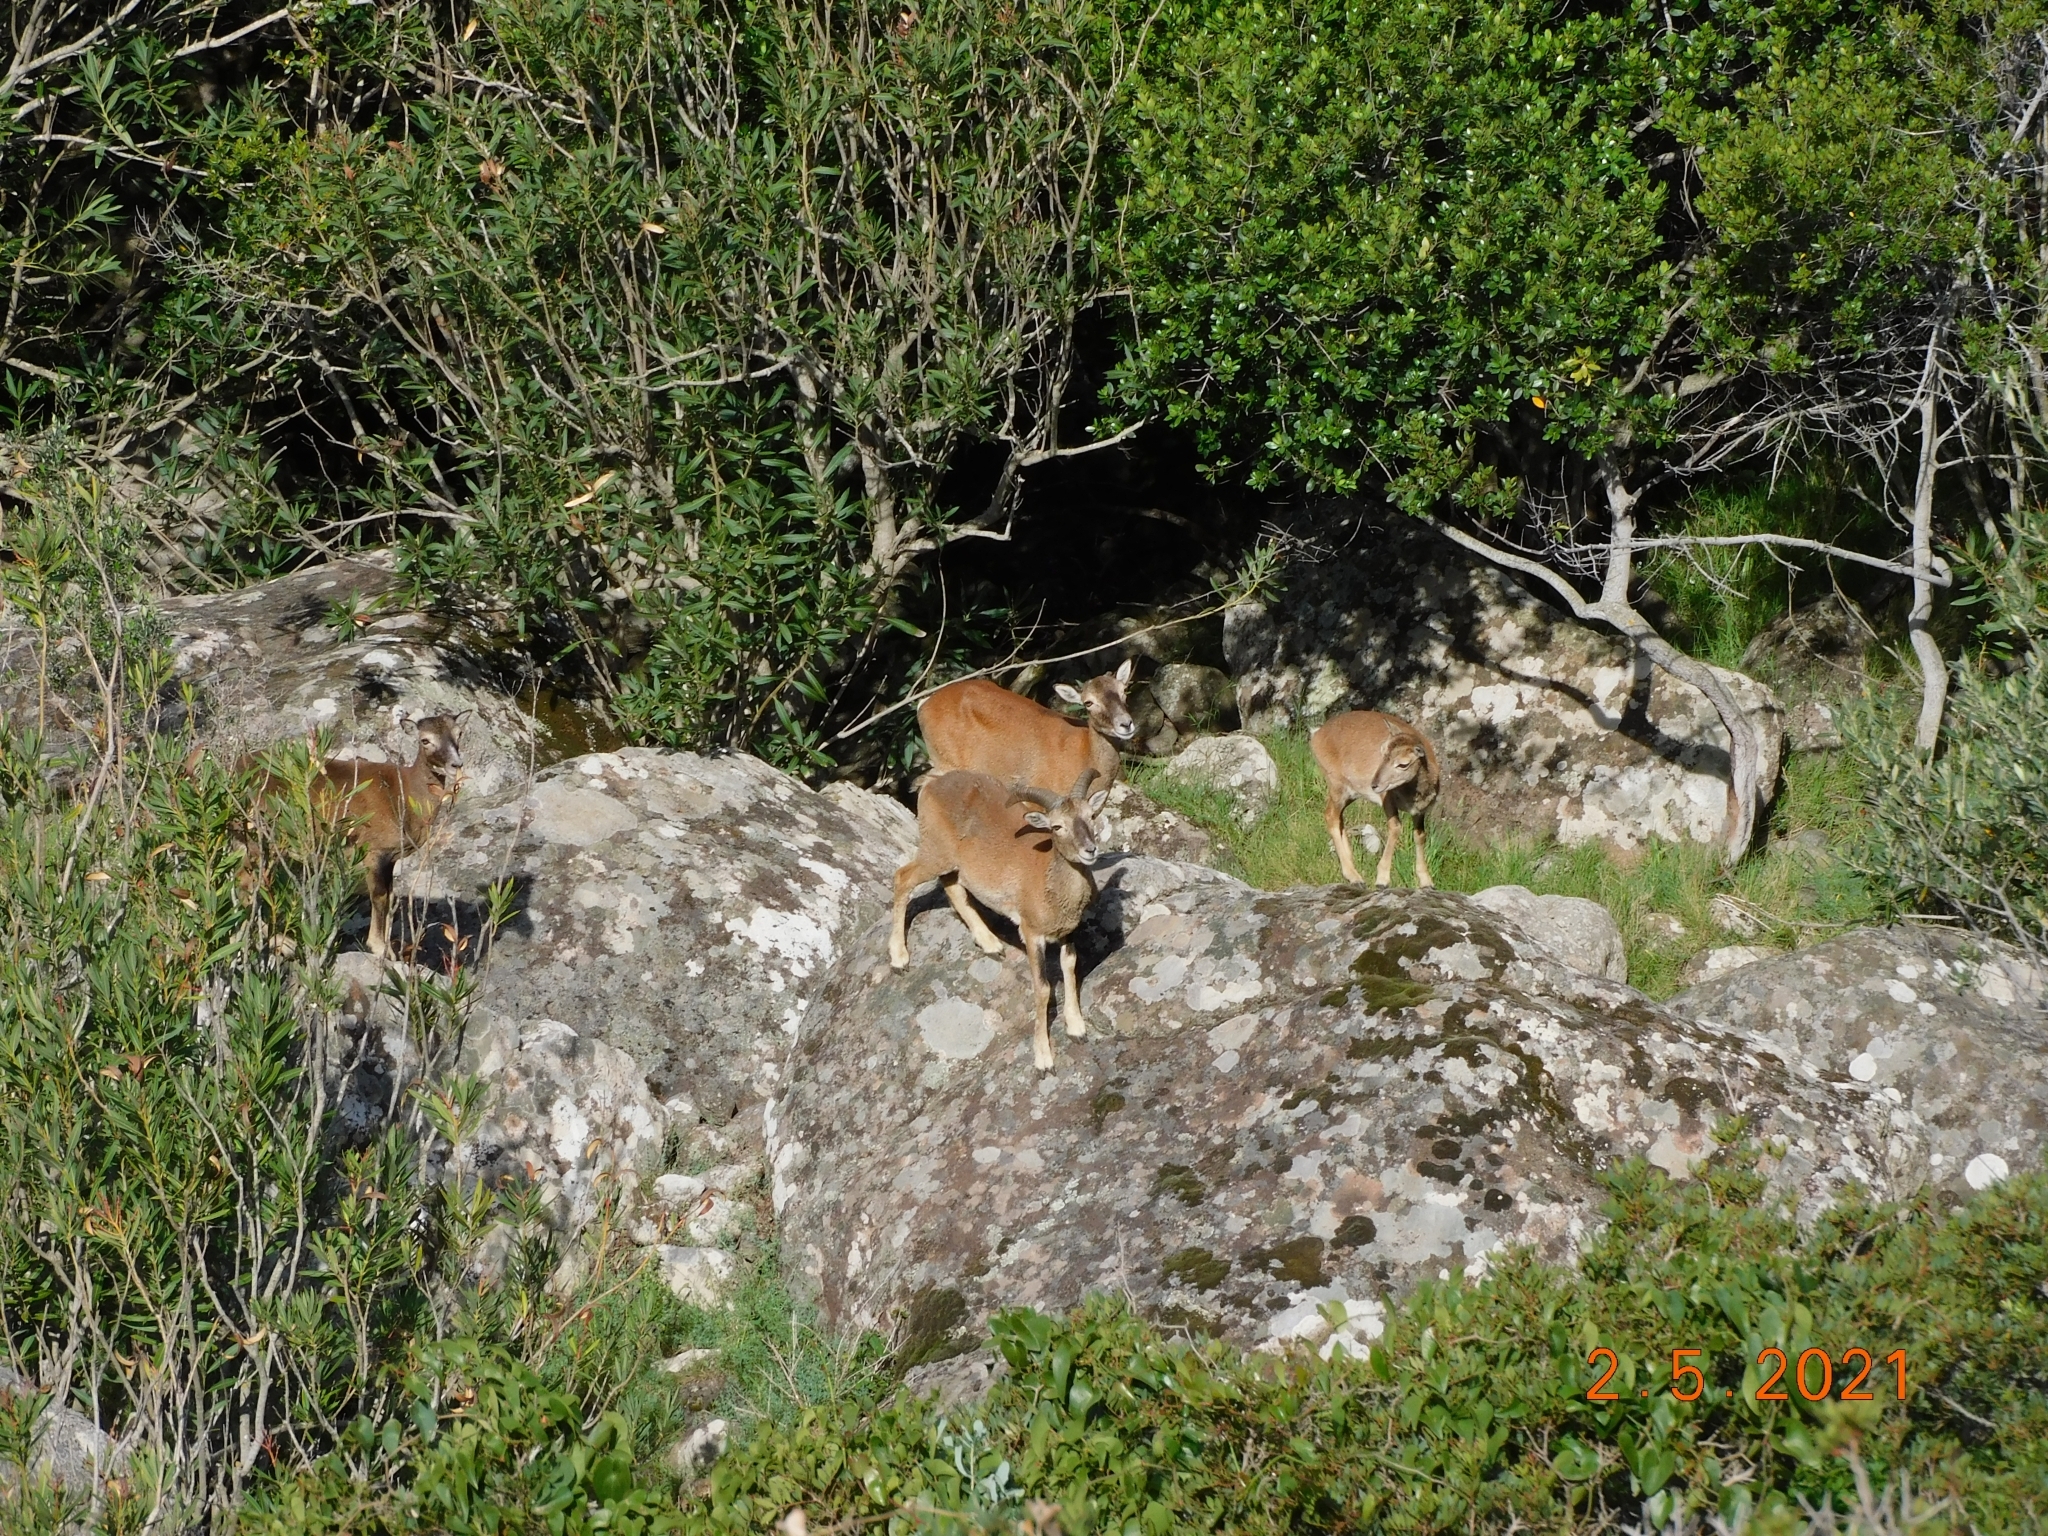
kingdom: Animalia
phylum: Chordata
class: Mammalia
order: Artiodactyla
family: Bovidae
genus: Ovis
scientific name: Ovis aries
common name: Domestic sheep
